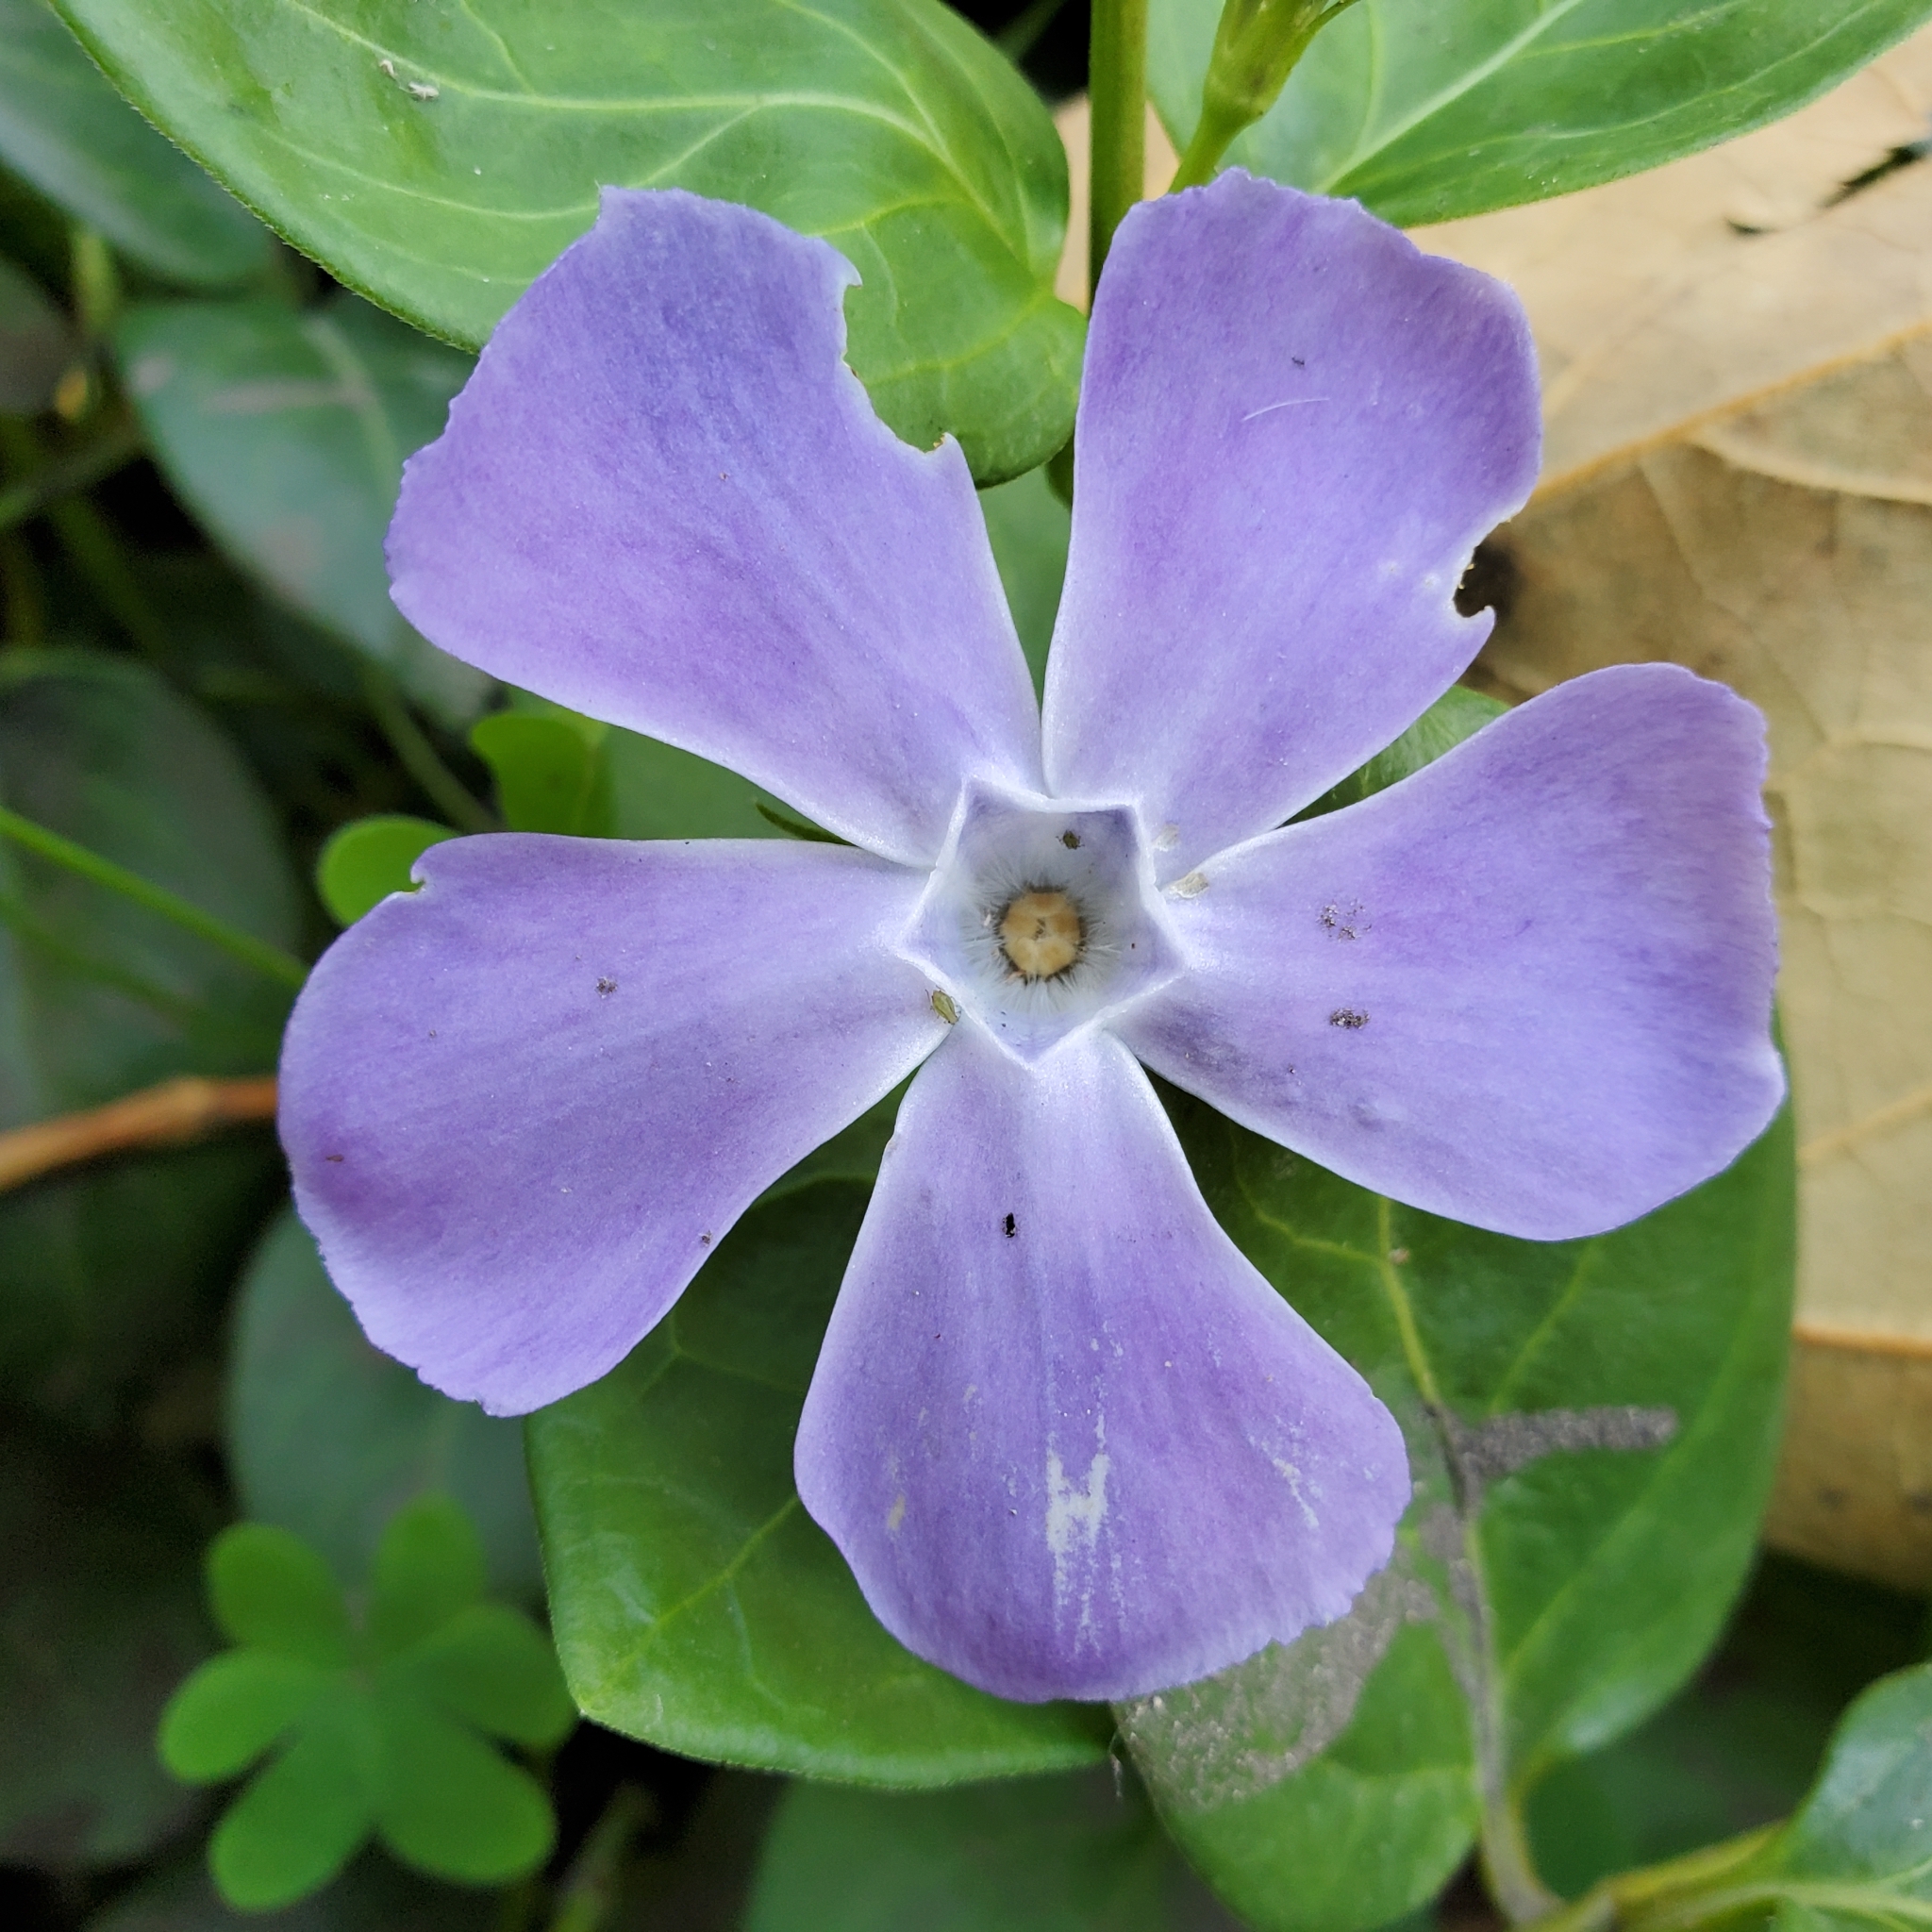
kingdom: Plantae
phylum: Tracheophyta
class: Magnoliopsida
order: Gentianales
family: Apocynaceae
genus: Vinca
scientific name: Vinca major
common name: Greater periwinkle
